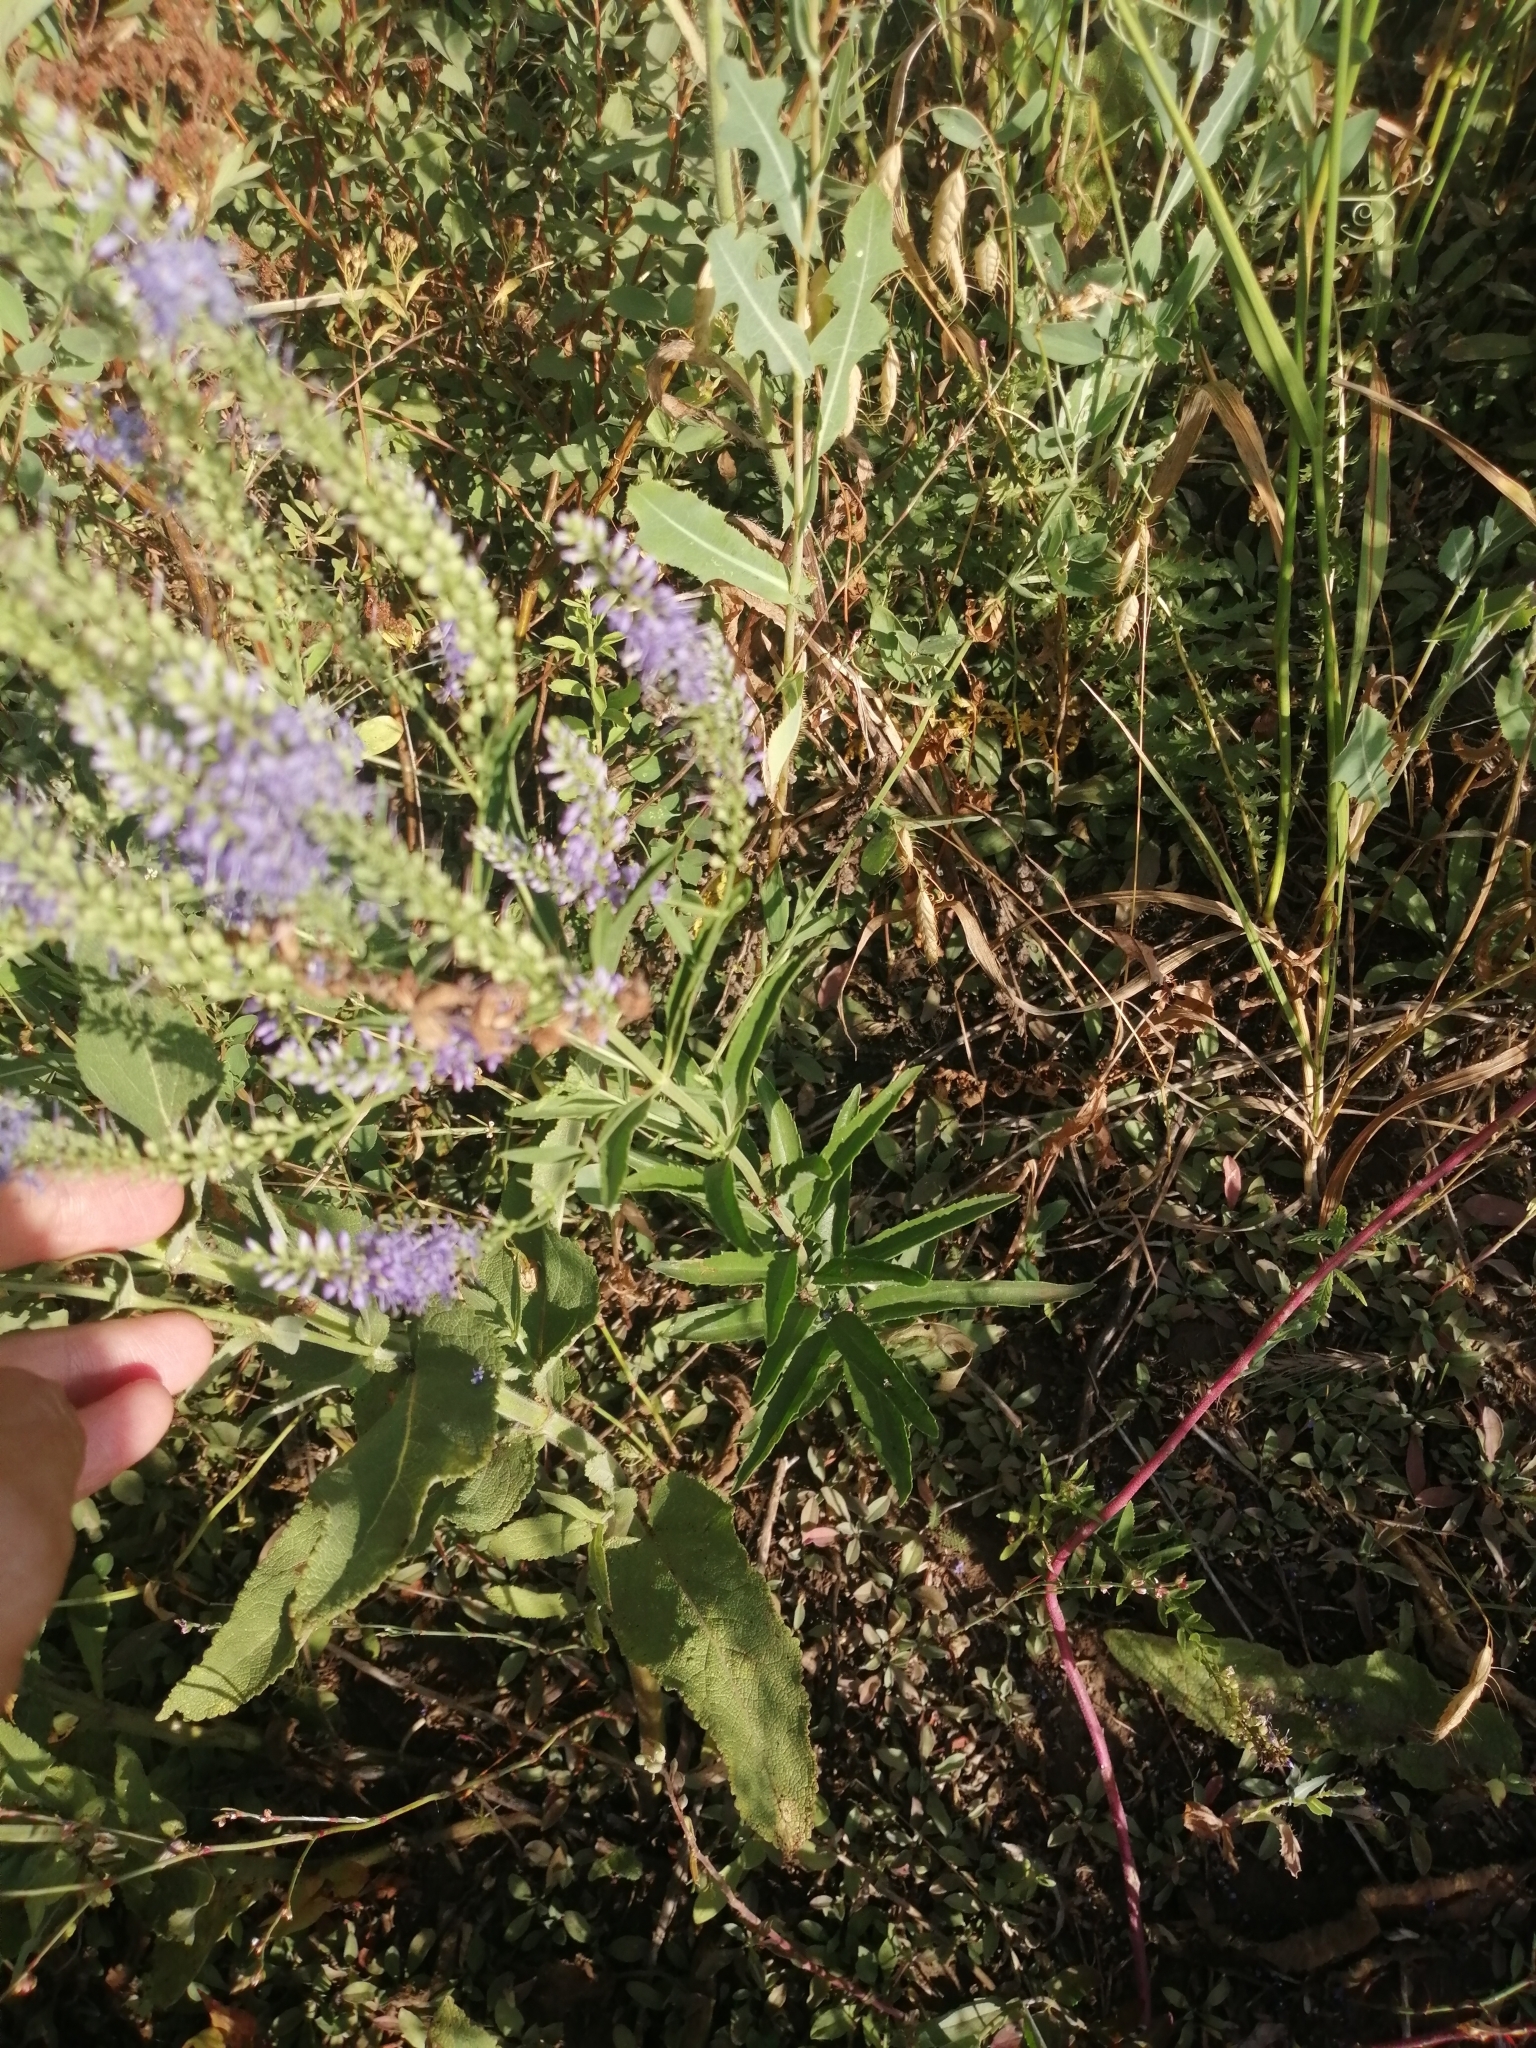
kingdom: Plantae
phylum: Tracheophyta
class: Magnoliopsida
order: Lamiales
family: Plantaginaceae
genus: Veronica
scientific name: Veronica spuria
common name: Bastard speedwell
